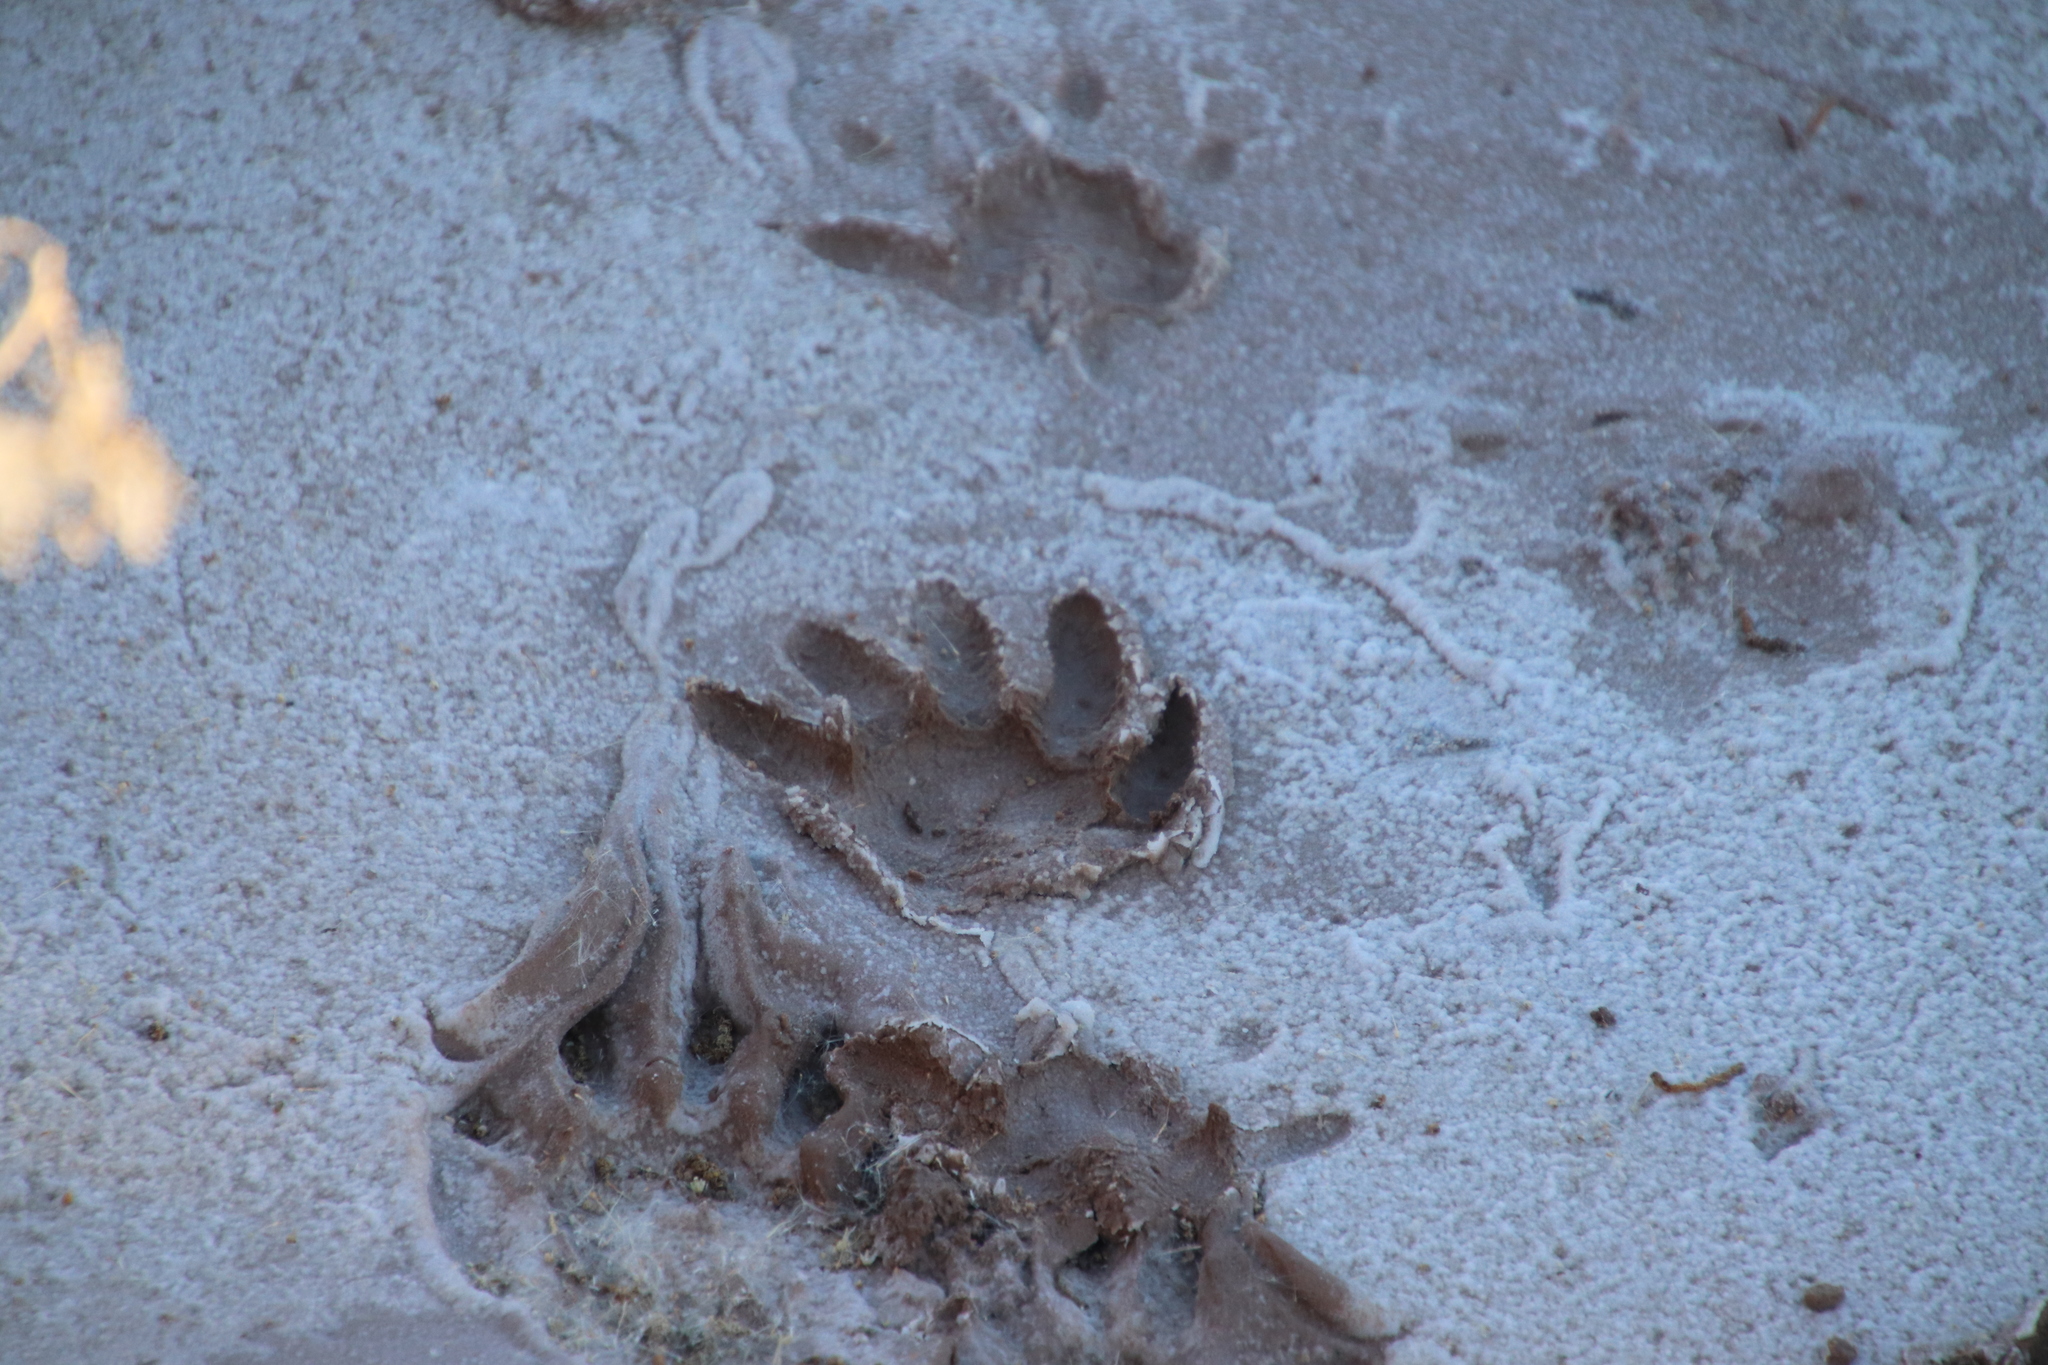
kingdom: Animalia
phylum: Chordata
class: Mammalia
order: Carnivora
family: Procyonidae
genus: Procyon
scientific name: Procyon lotor
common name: Raccoon
